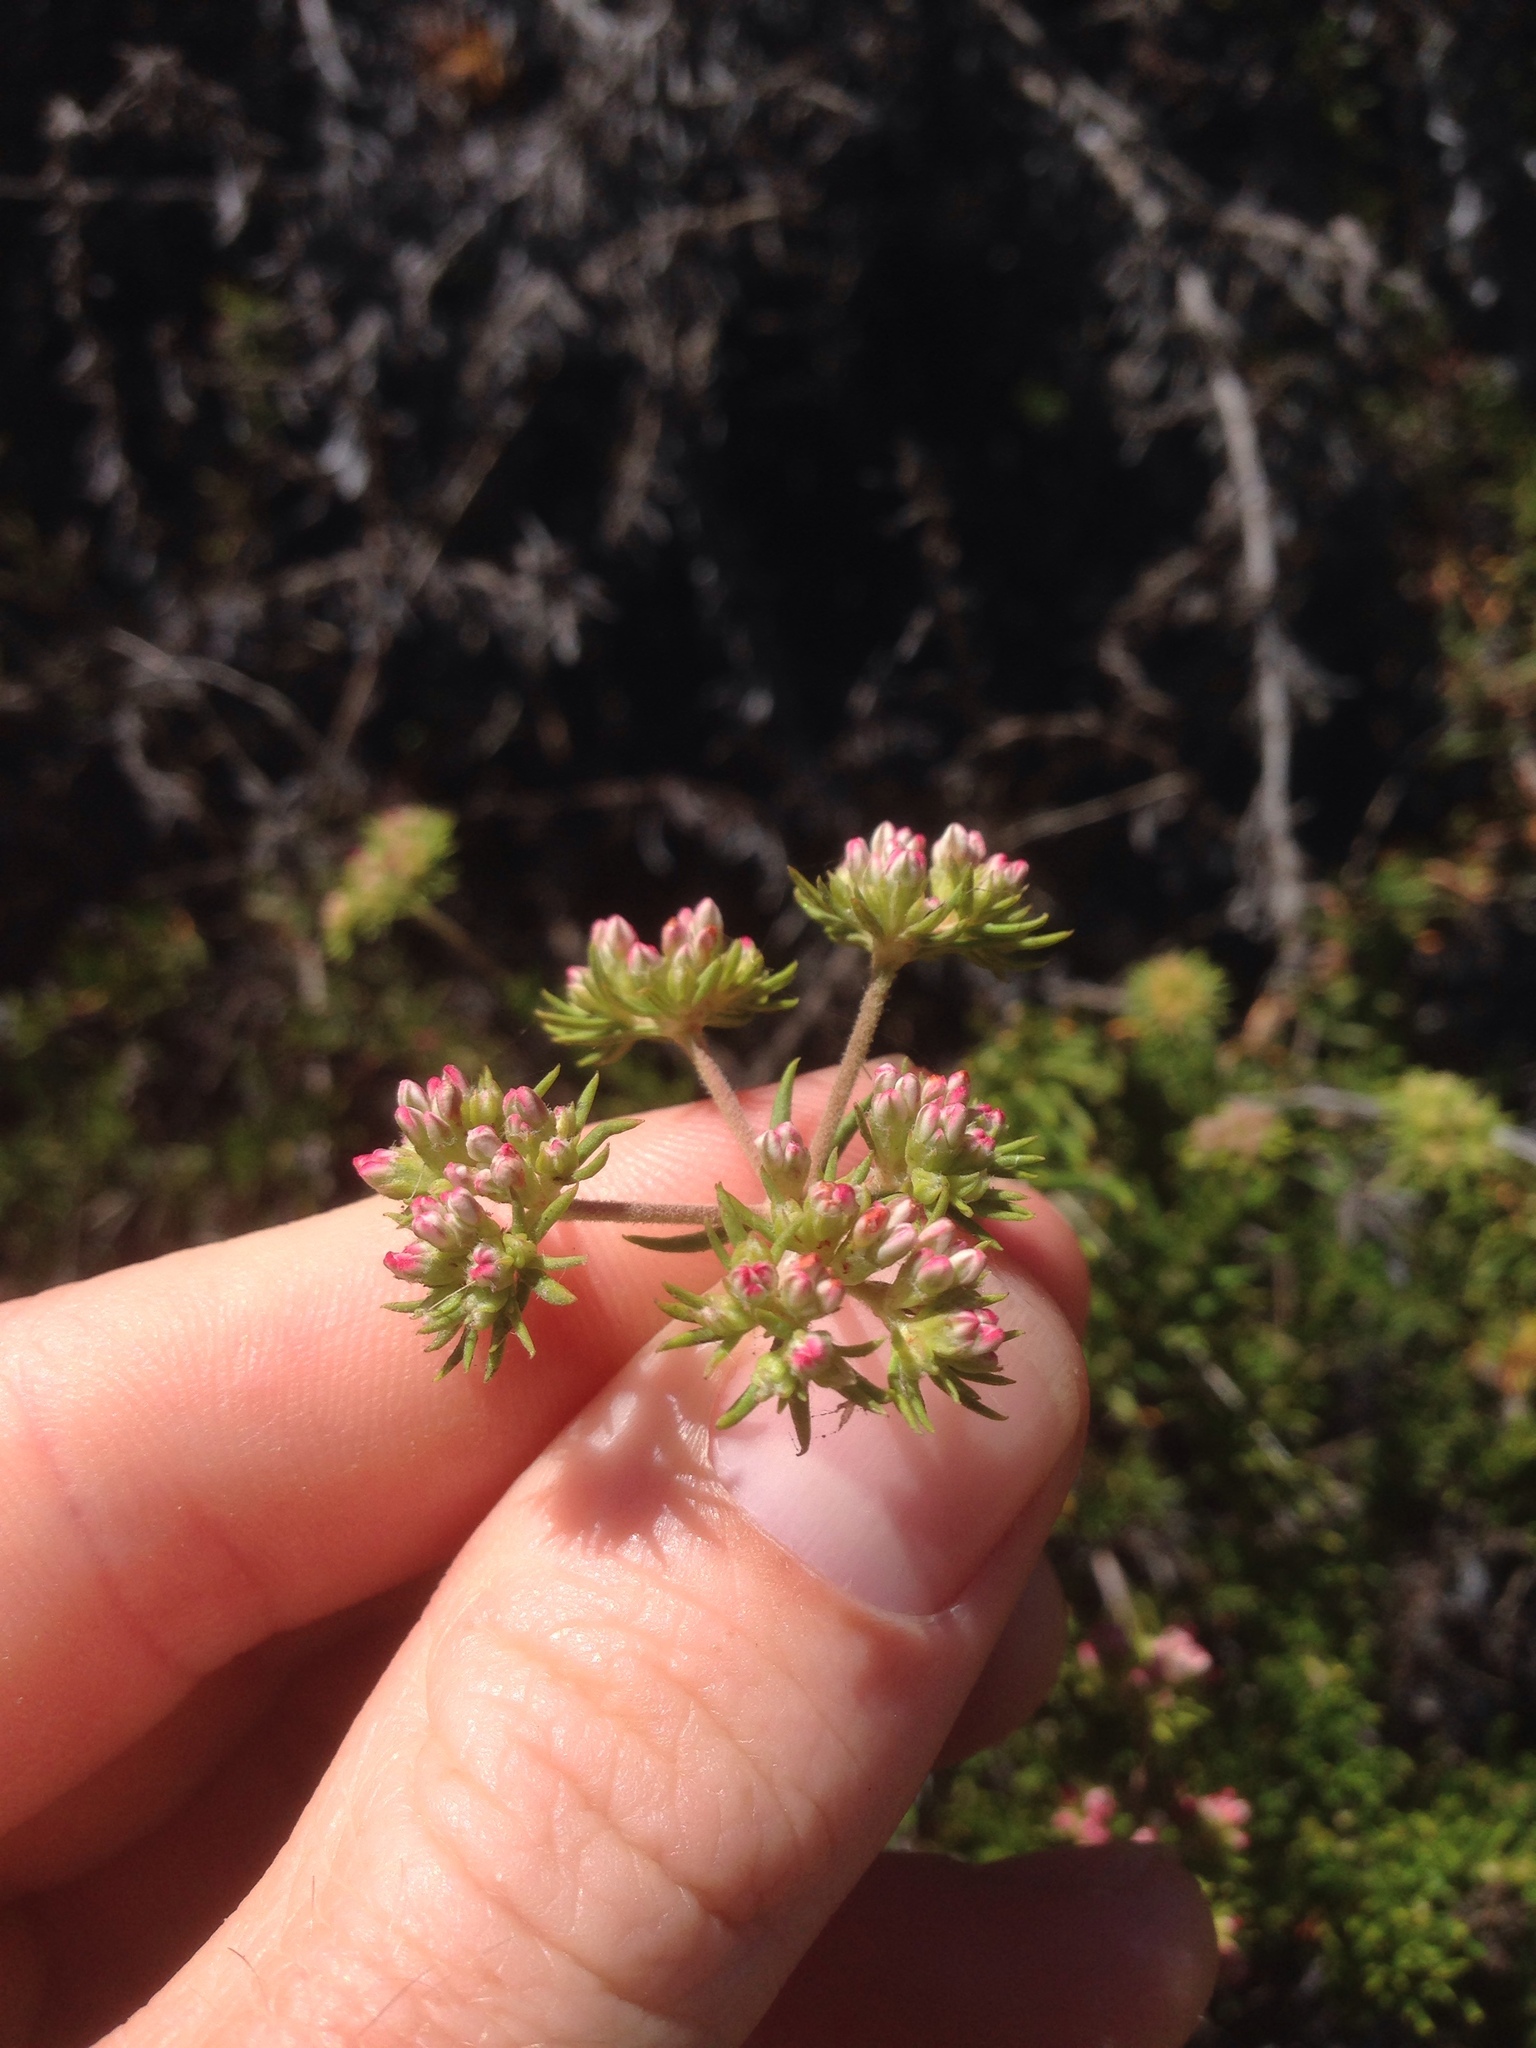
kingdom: Plantae
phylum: Tracheophyta
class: Magnoliopsida
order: Caryophyllales
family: Polygonaceae
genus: Eriogonum
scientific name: Eriogonum fasciculatum
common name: California wild buckwheat
